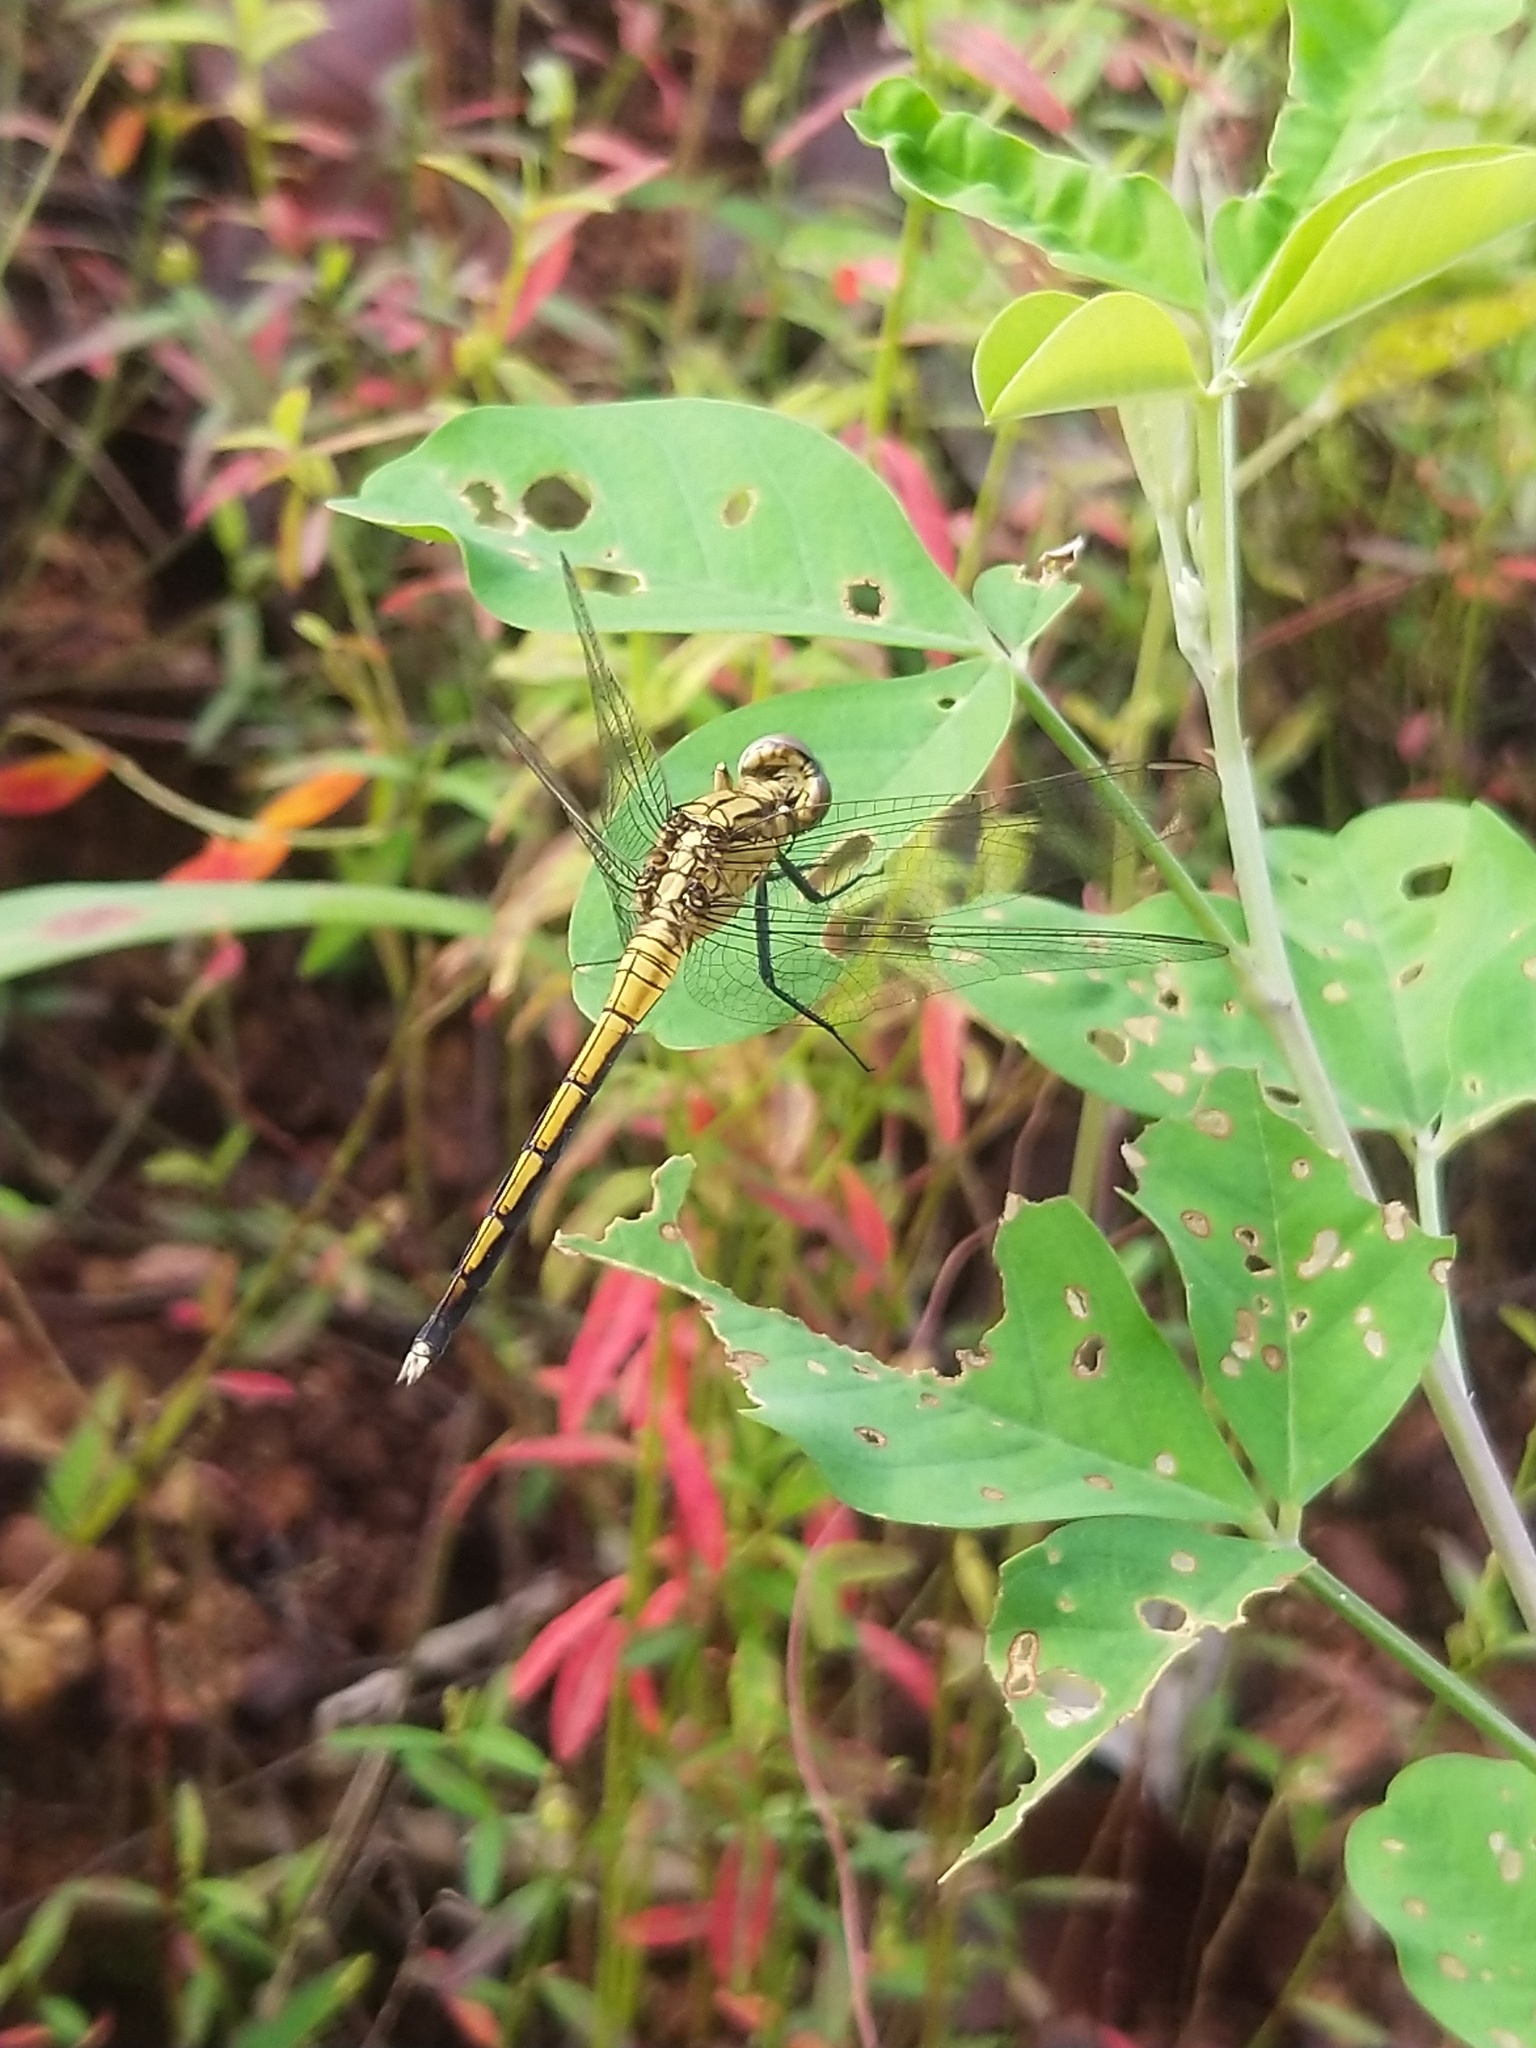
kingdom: Animalia
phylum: Arthropoda
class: Insecta
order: Odonata
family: Libellulidae
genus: Orthetrum
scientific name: Orthetrum luzonicum
